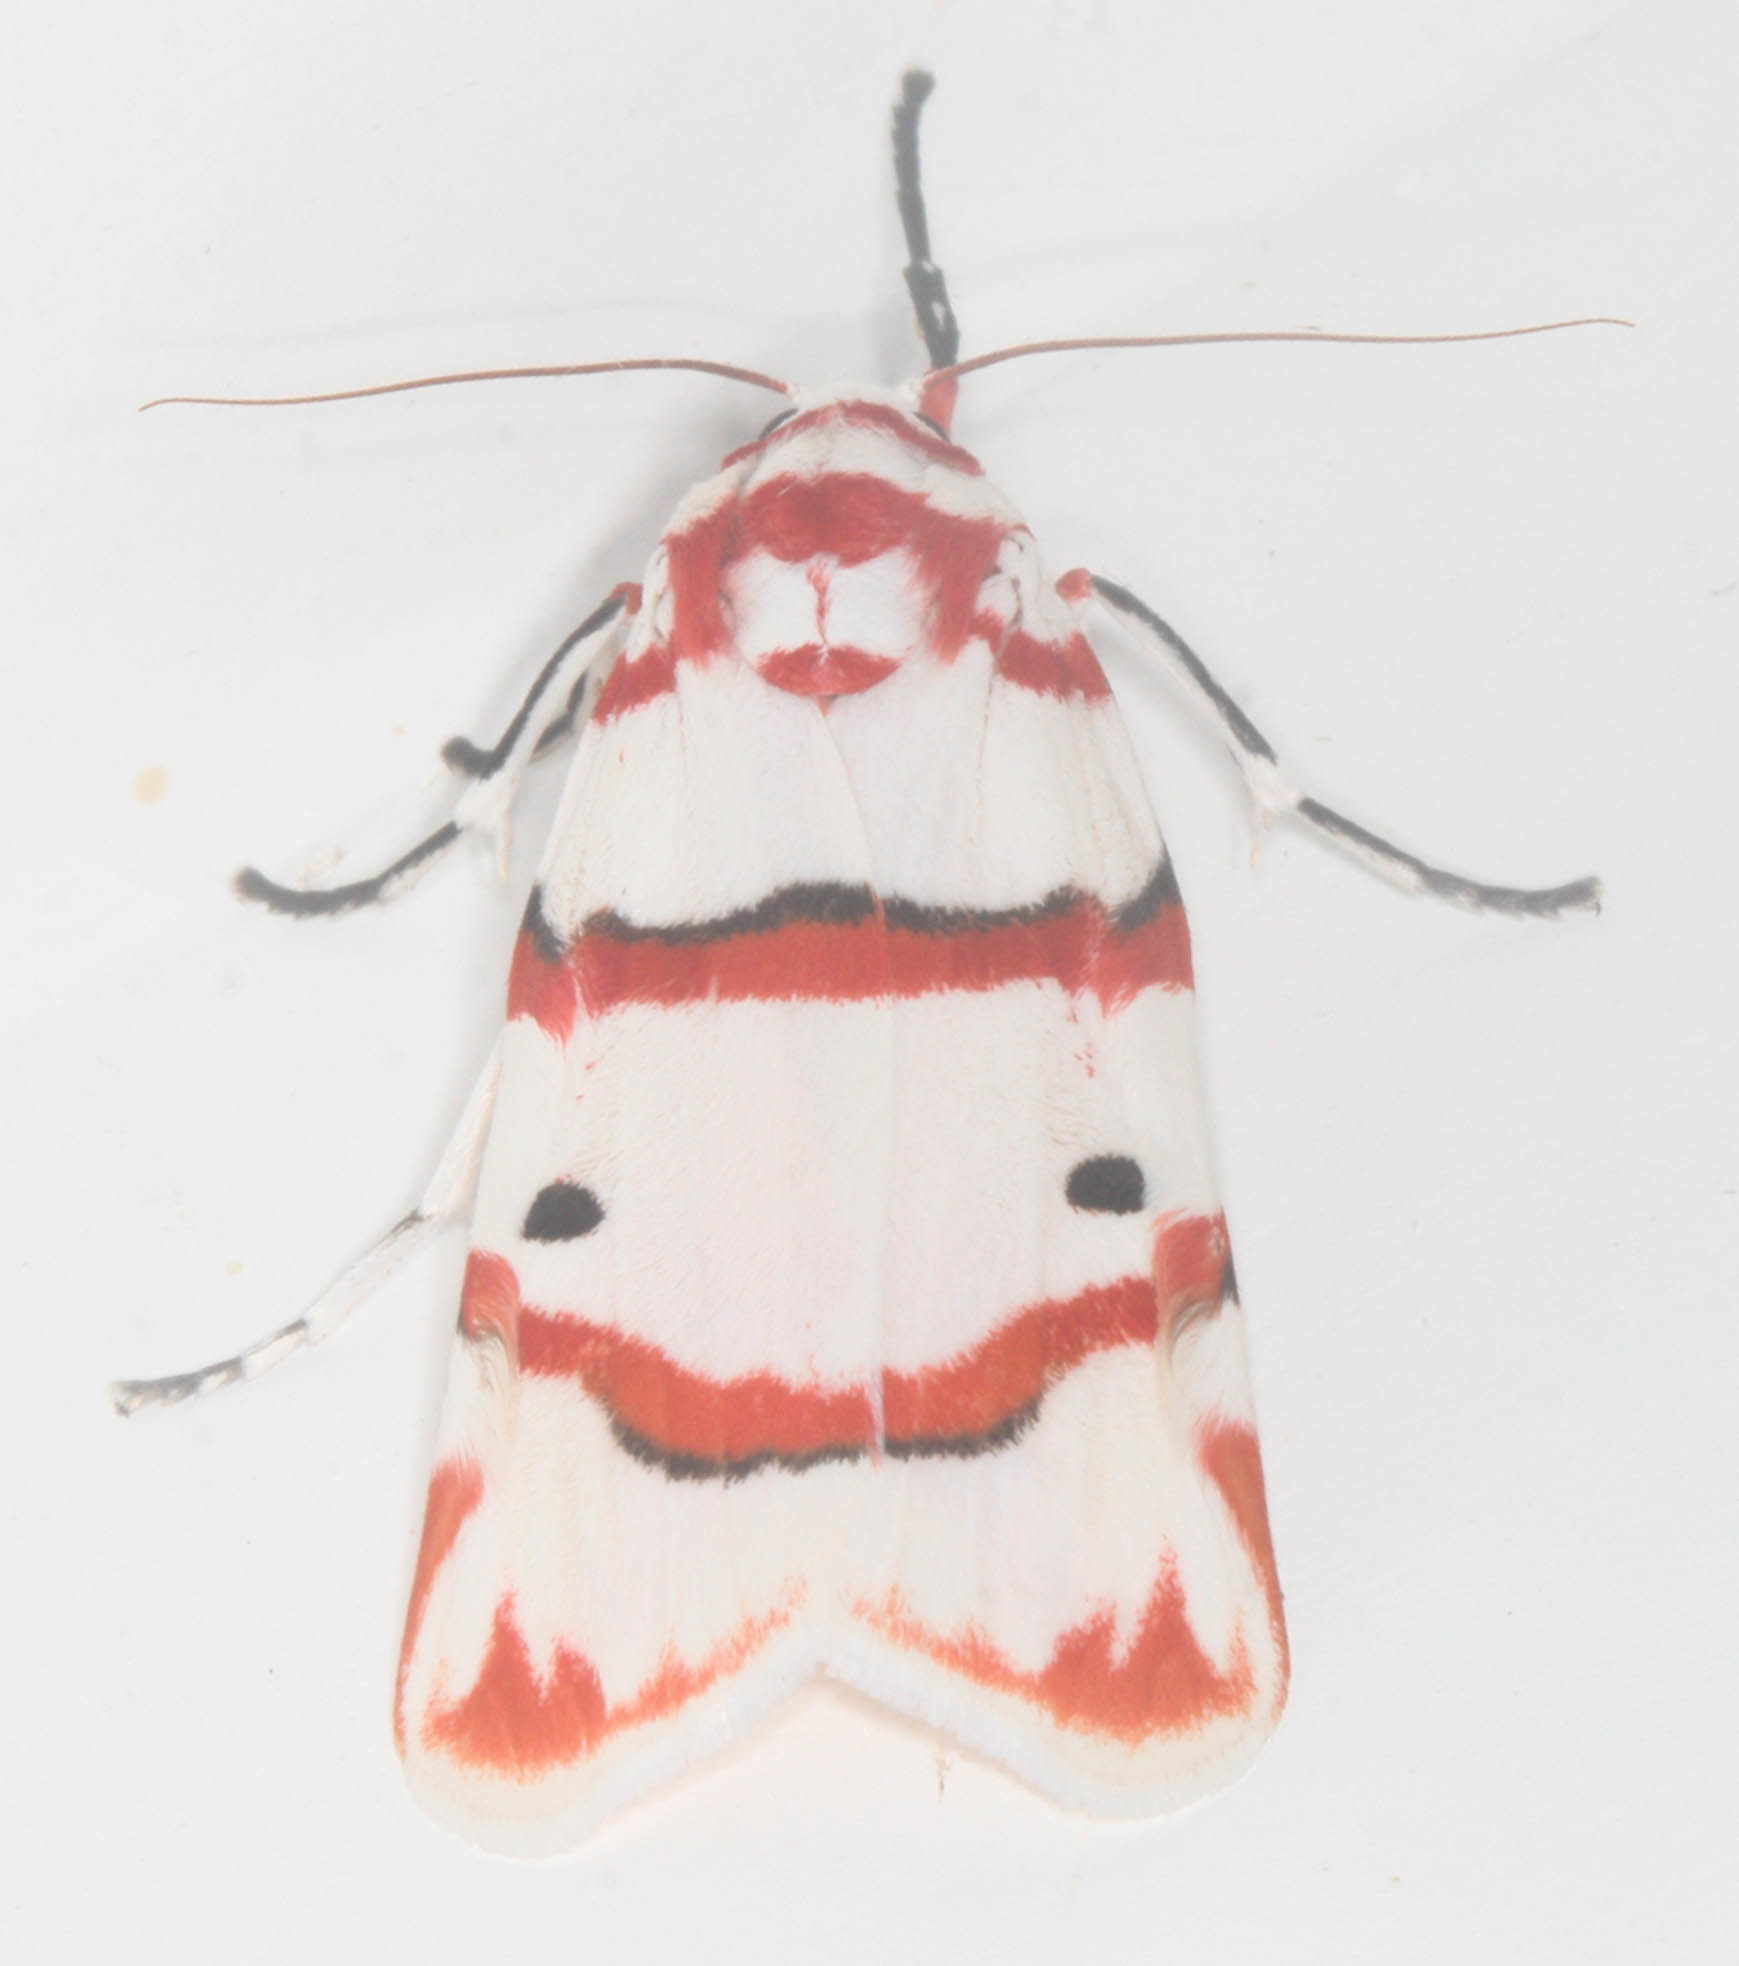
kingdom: Animalia
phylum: Arthropoda
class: Insecta
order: Lepidoptera
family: Erebidae
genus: Cyana
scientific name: Cyana perornata
